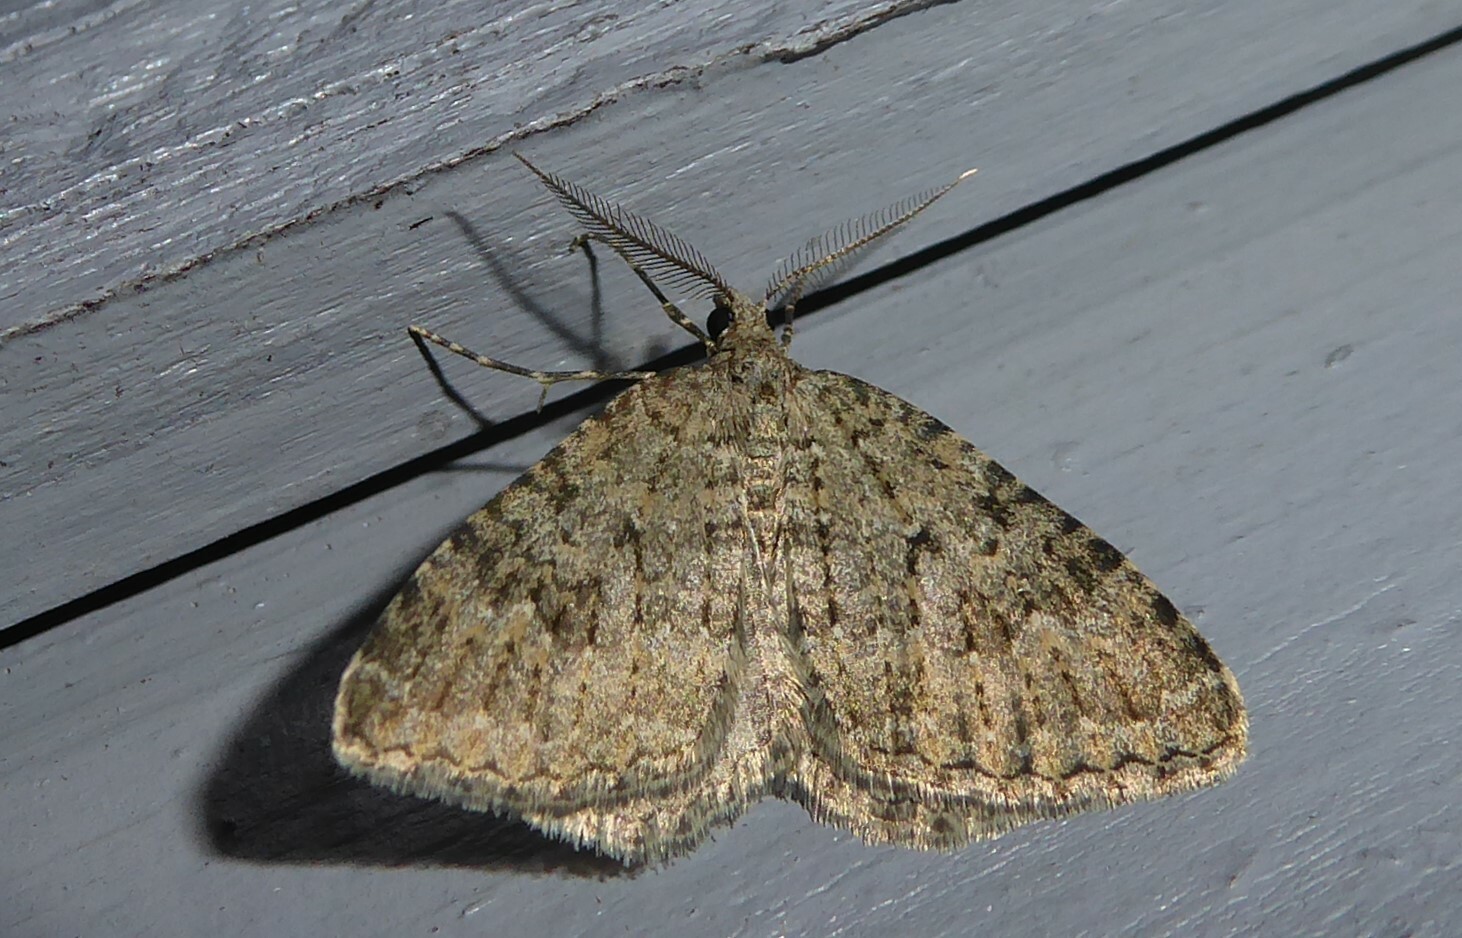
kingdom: Animalia
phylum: Arthropoda
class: Insecta
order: Lepidoptera
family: Geometridae
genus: Helastia
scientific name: Helastia corcularia
